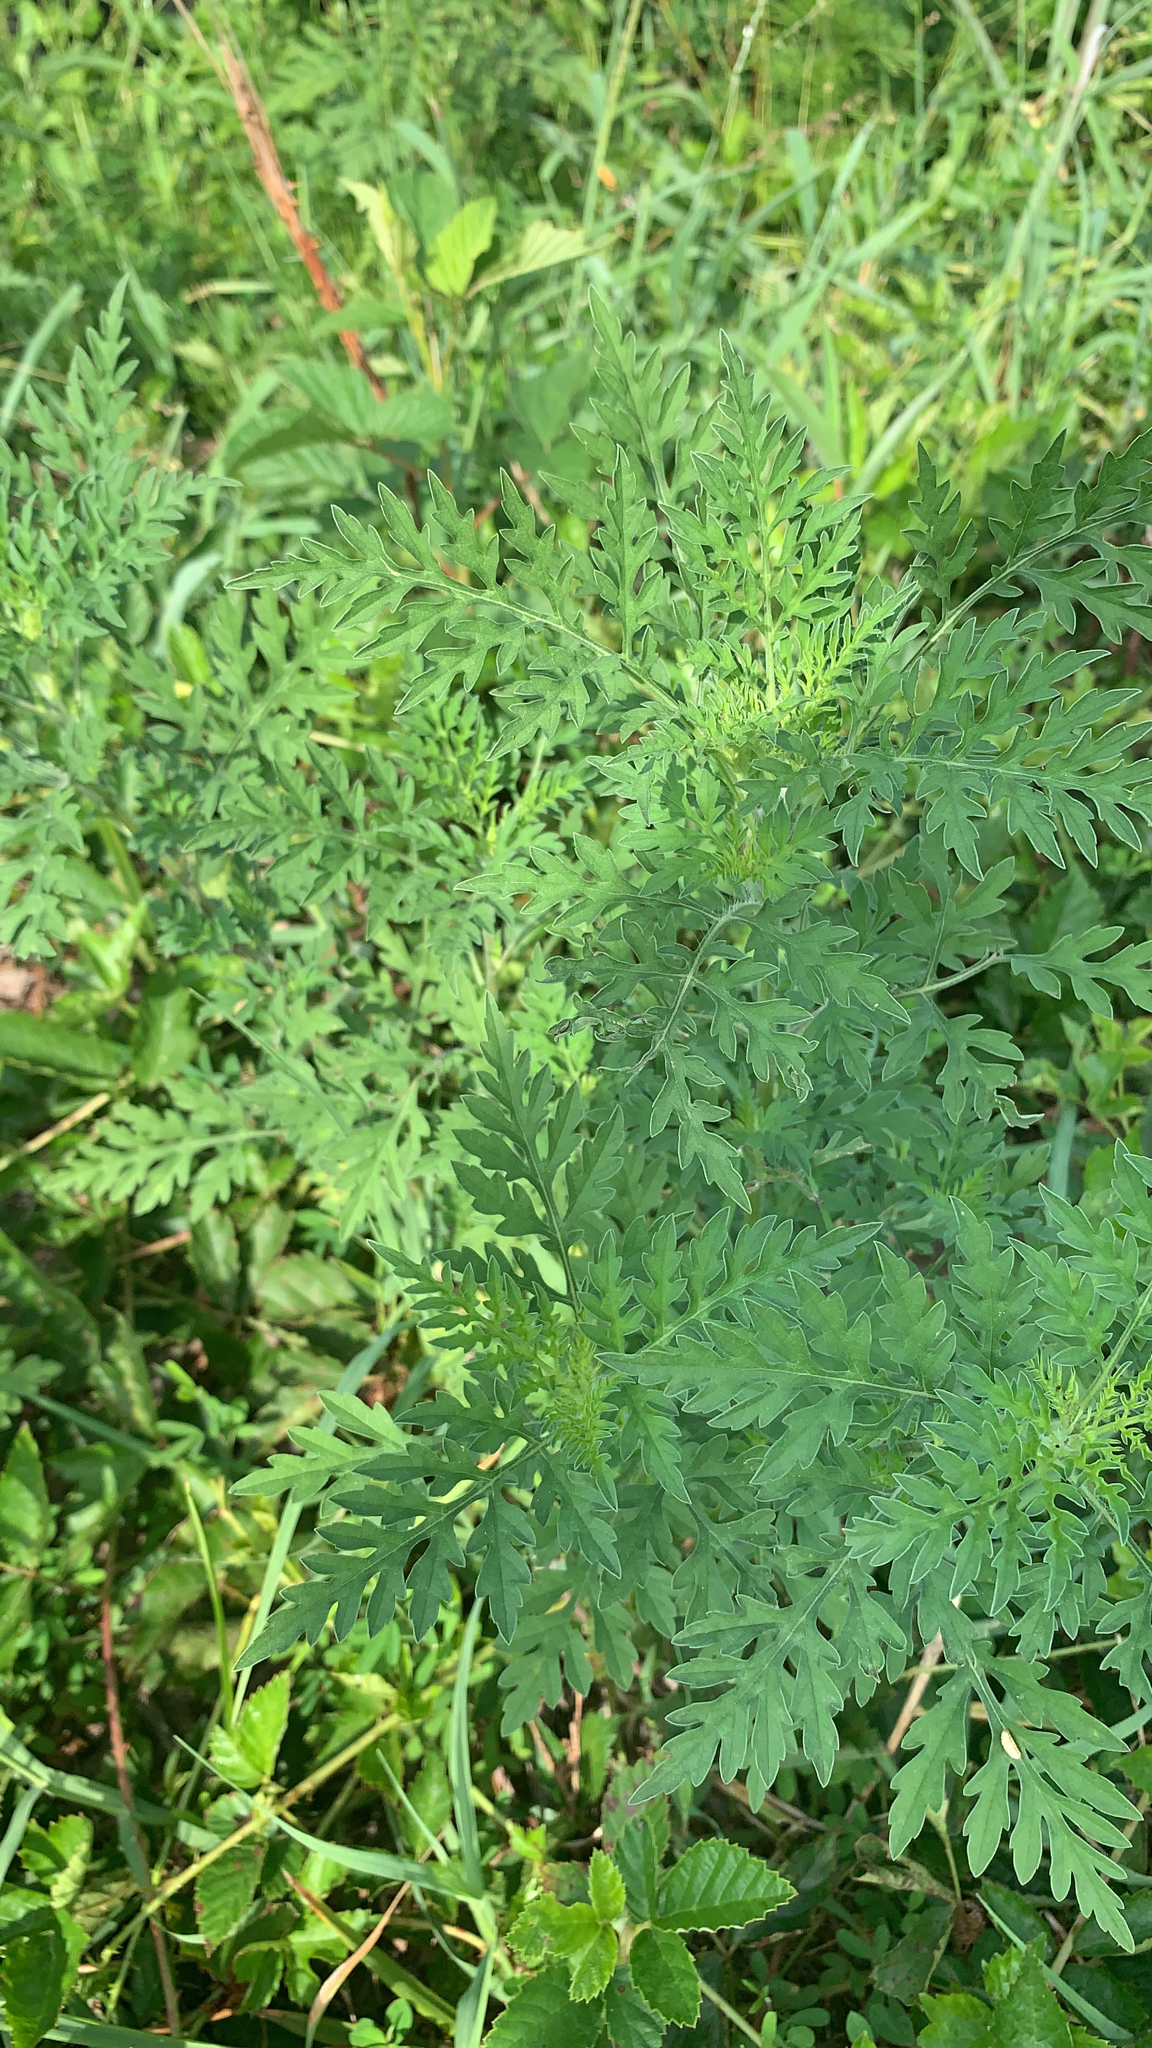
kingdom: Plantae
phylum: Tracheophyta
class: Magnoliopsida
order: Asterales
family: Asteraceae
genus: Ambrosia
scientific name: Ambrosia artemisiifolia
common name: Annual ragweed
